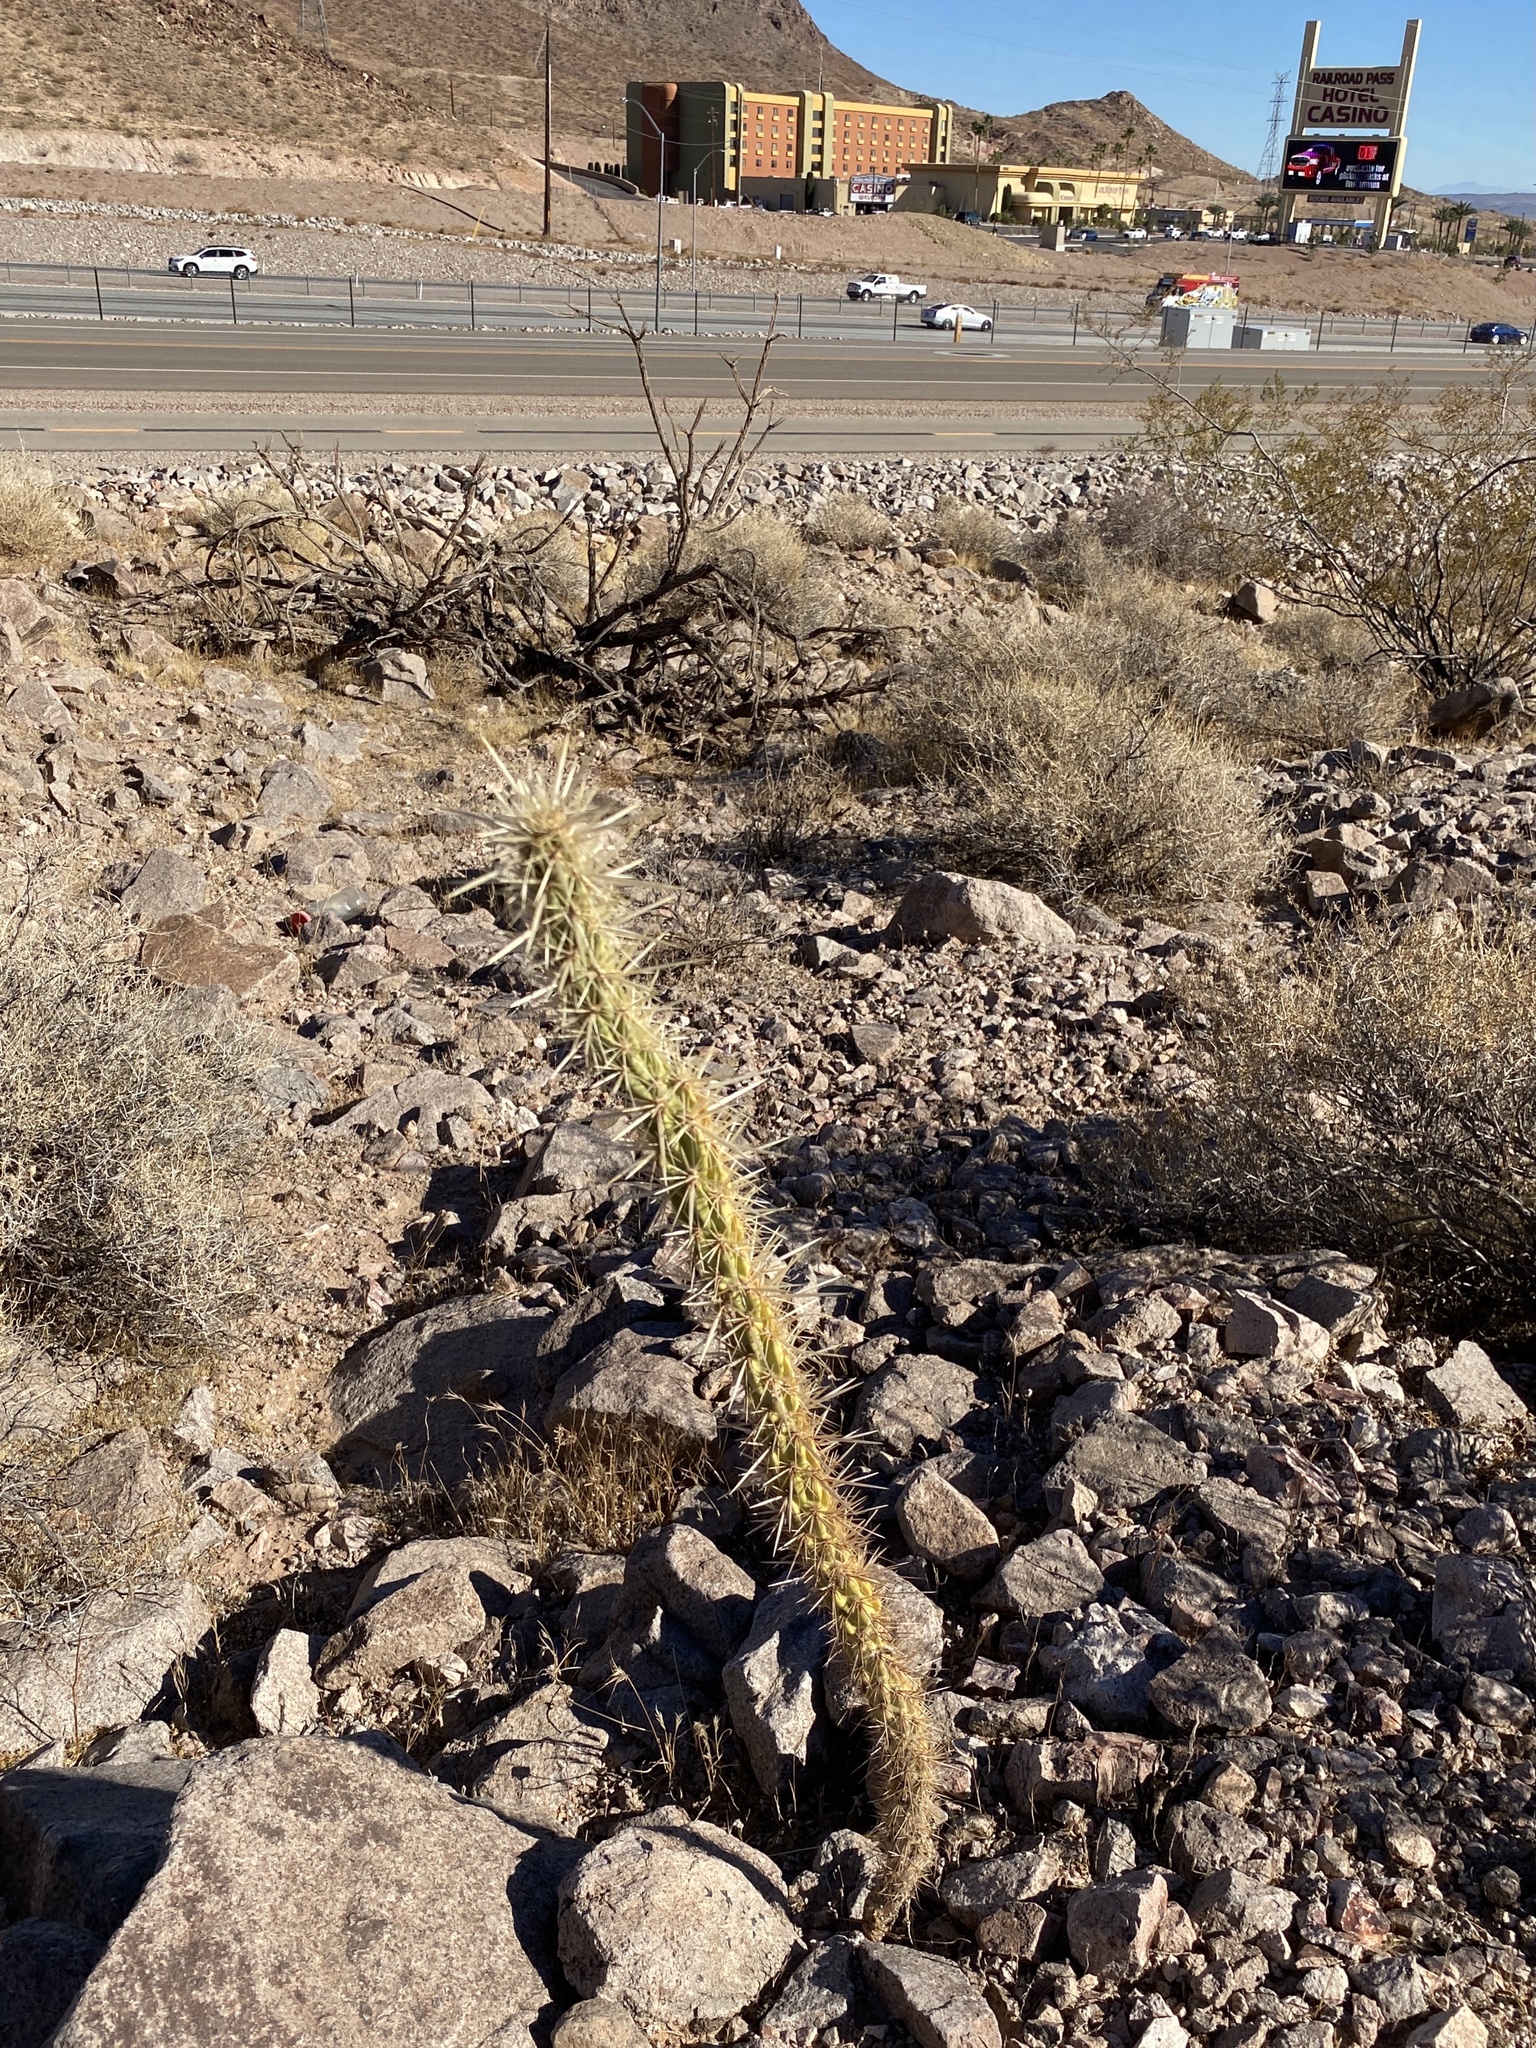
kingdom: Plantae
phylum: Tracheophyta
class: Magnoliopsida
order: Caryophyllales
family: Cactaceae
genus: Cylindropuntia
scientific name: Cylindropuntia acanthocarpa
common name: Buckhorn cholla
